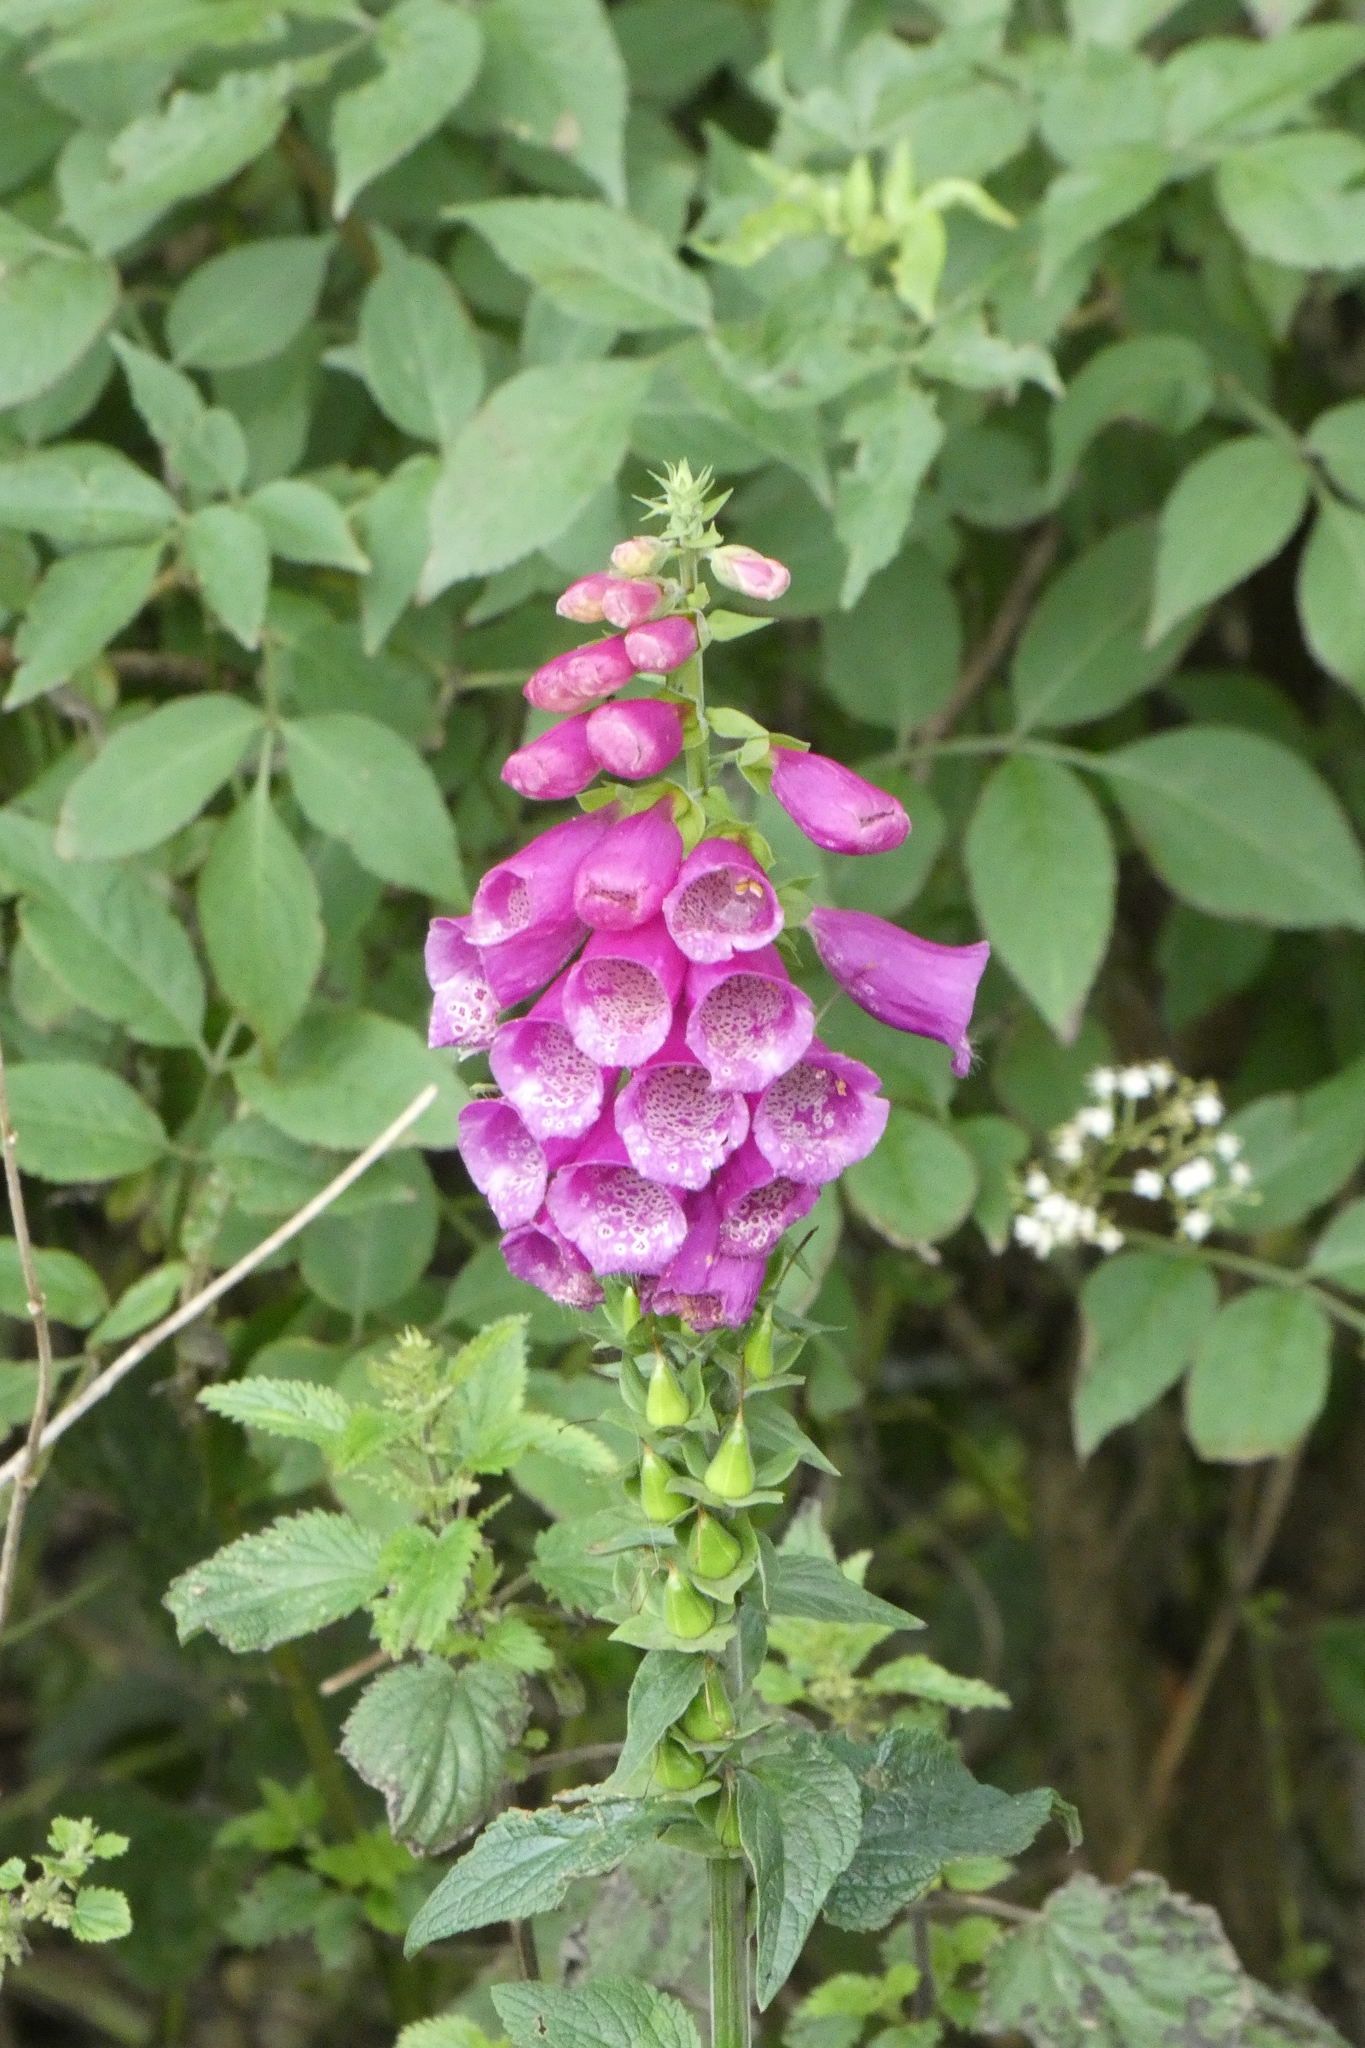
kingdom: Plantae
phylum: Tracheophyta
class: Magnoliopsida
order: Lamiales
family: Plantaginaceae
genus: Digitalis
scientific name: Digitalis purpurea
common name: Foxglove
